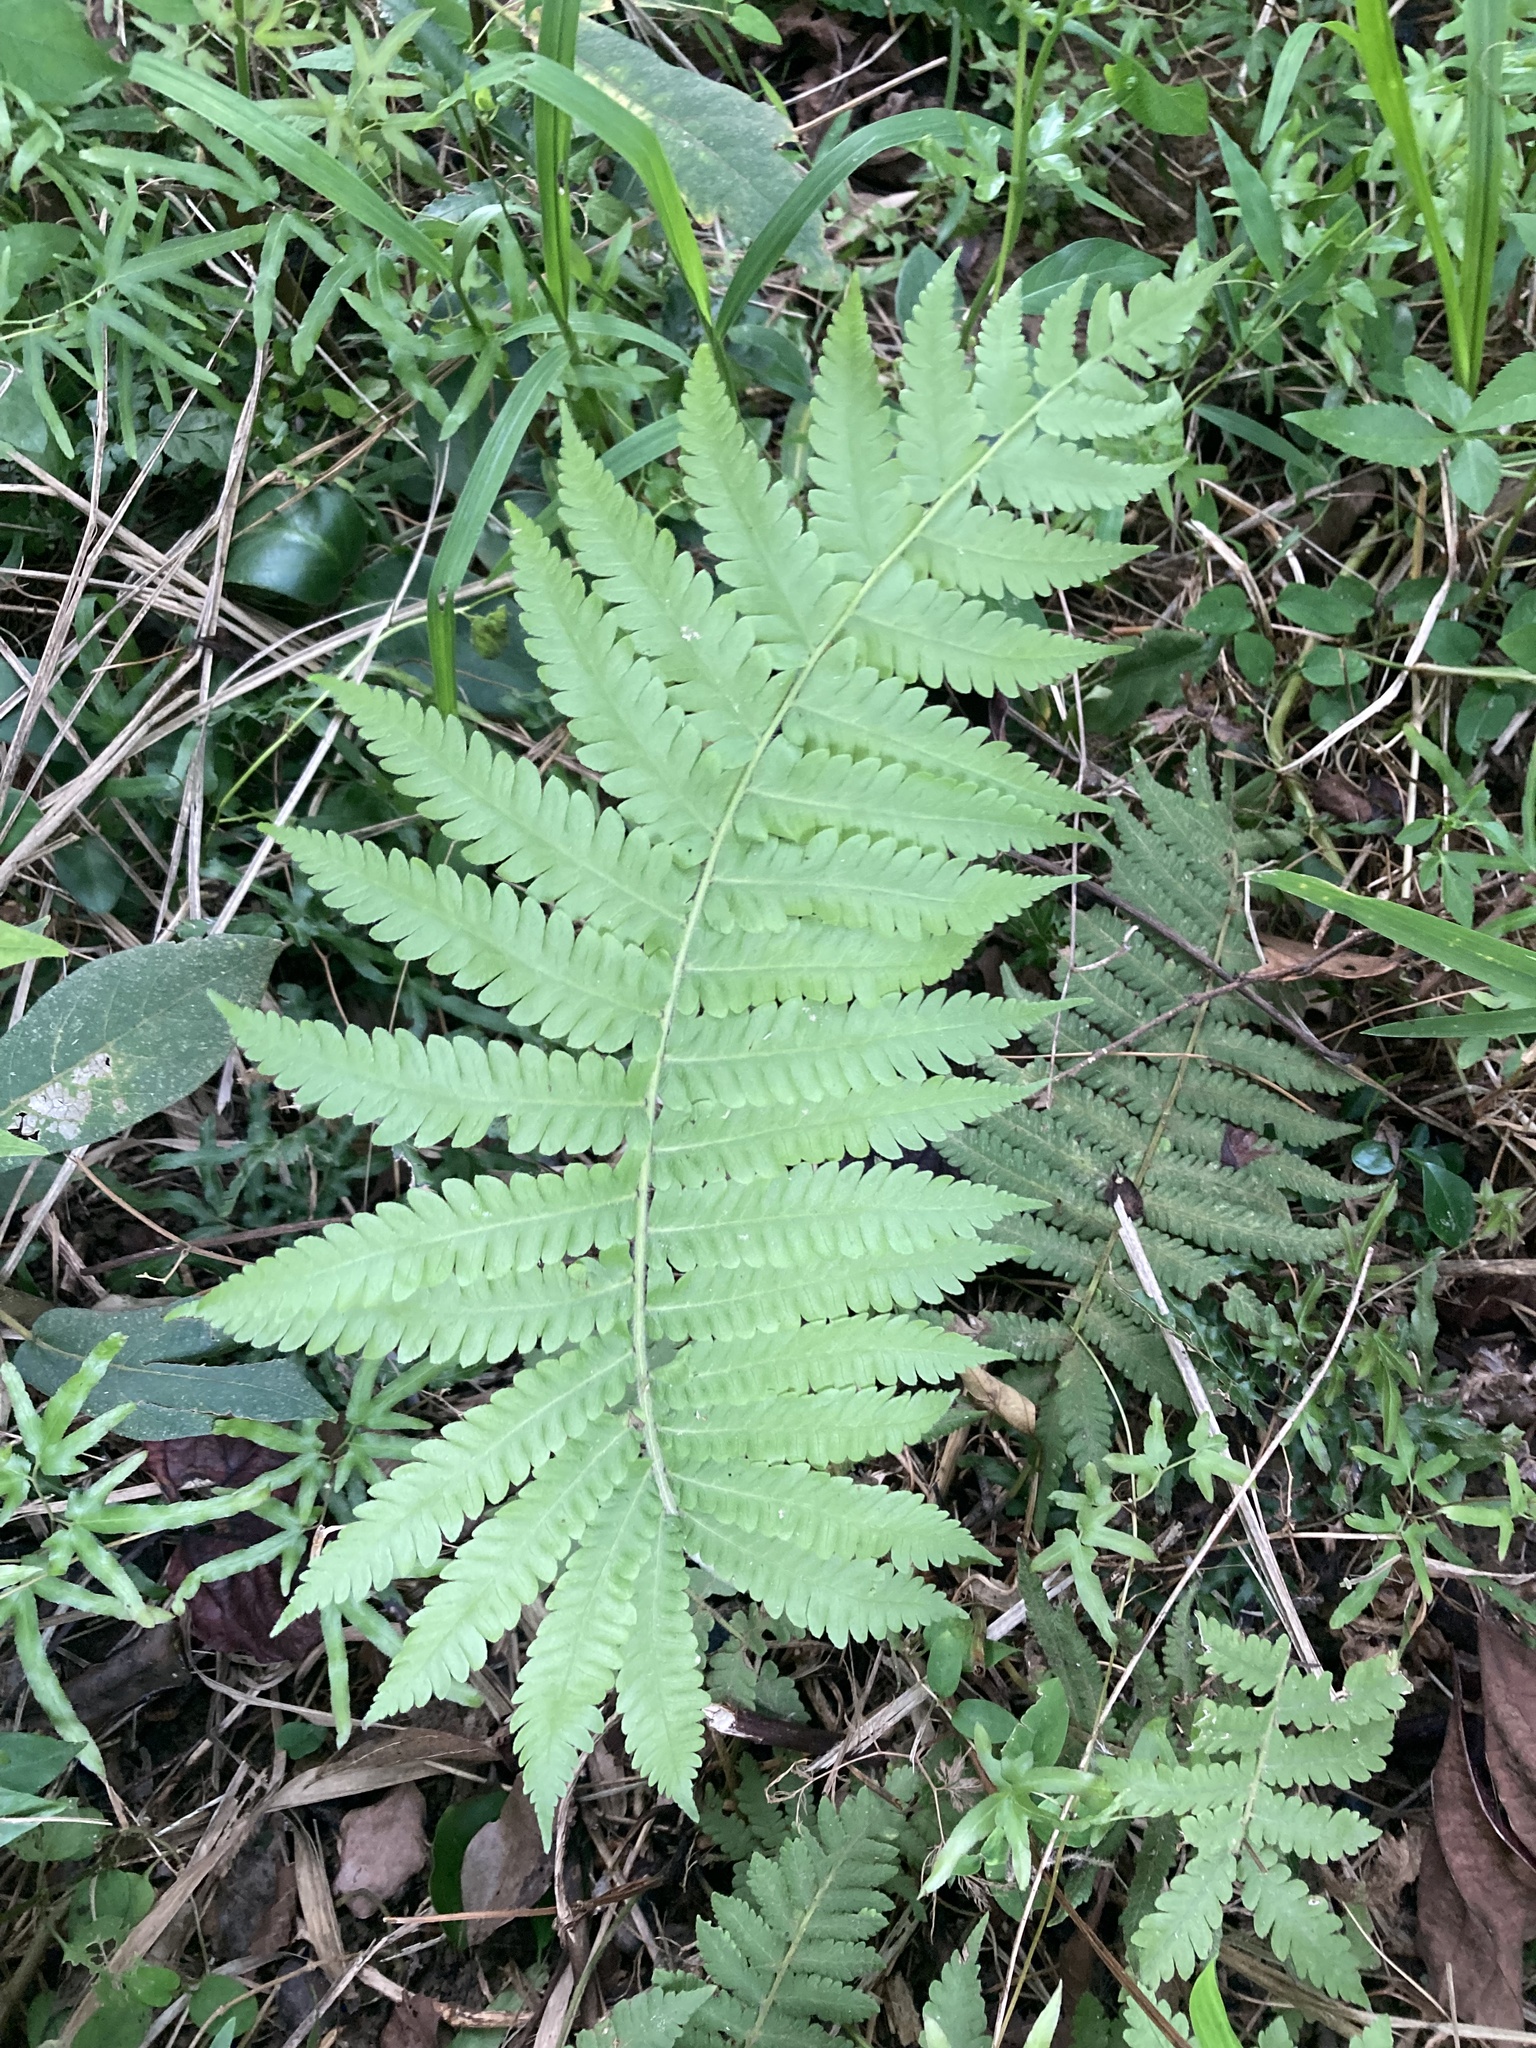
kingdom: Plantae
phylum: Tracheophyta
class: Polypodiopsida
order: Polypodiales
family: Thelypteridaceae
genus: Christella
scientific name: Christella parasitica
